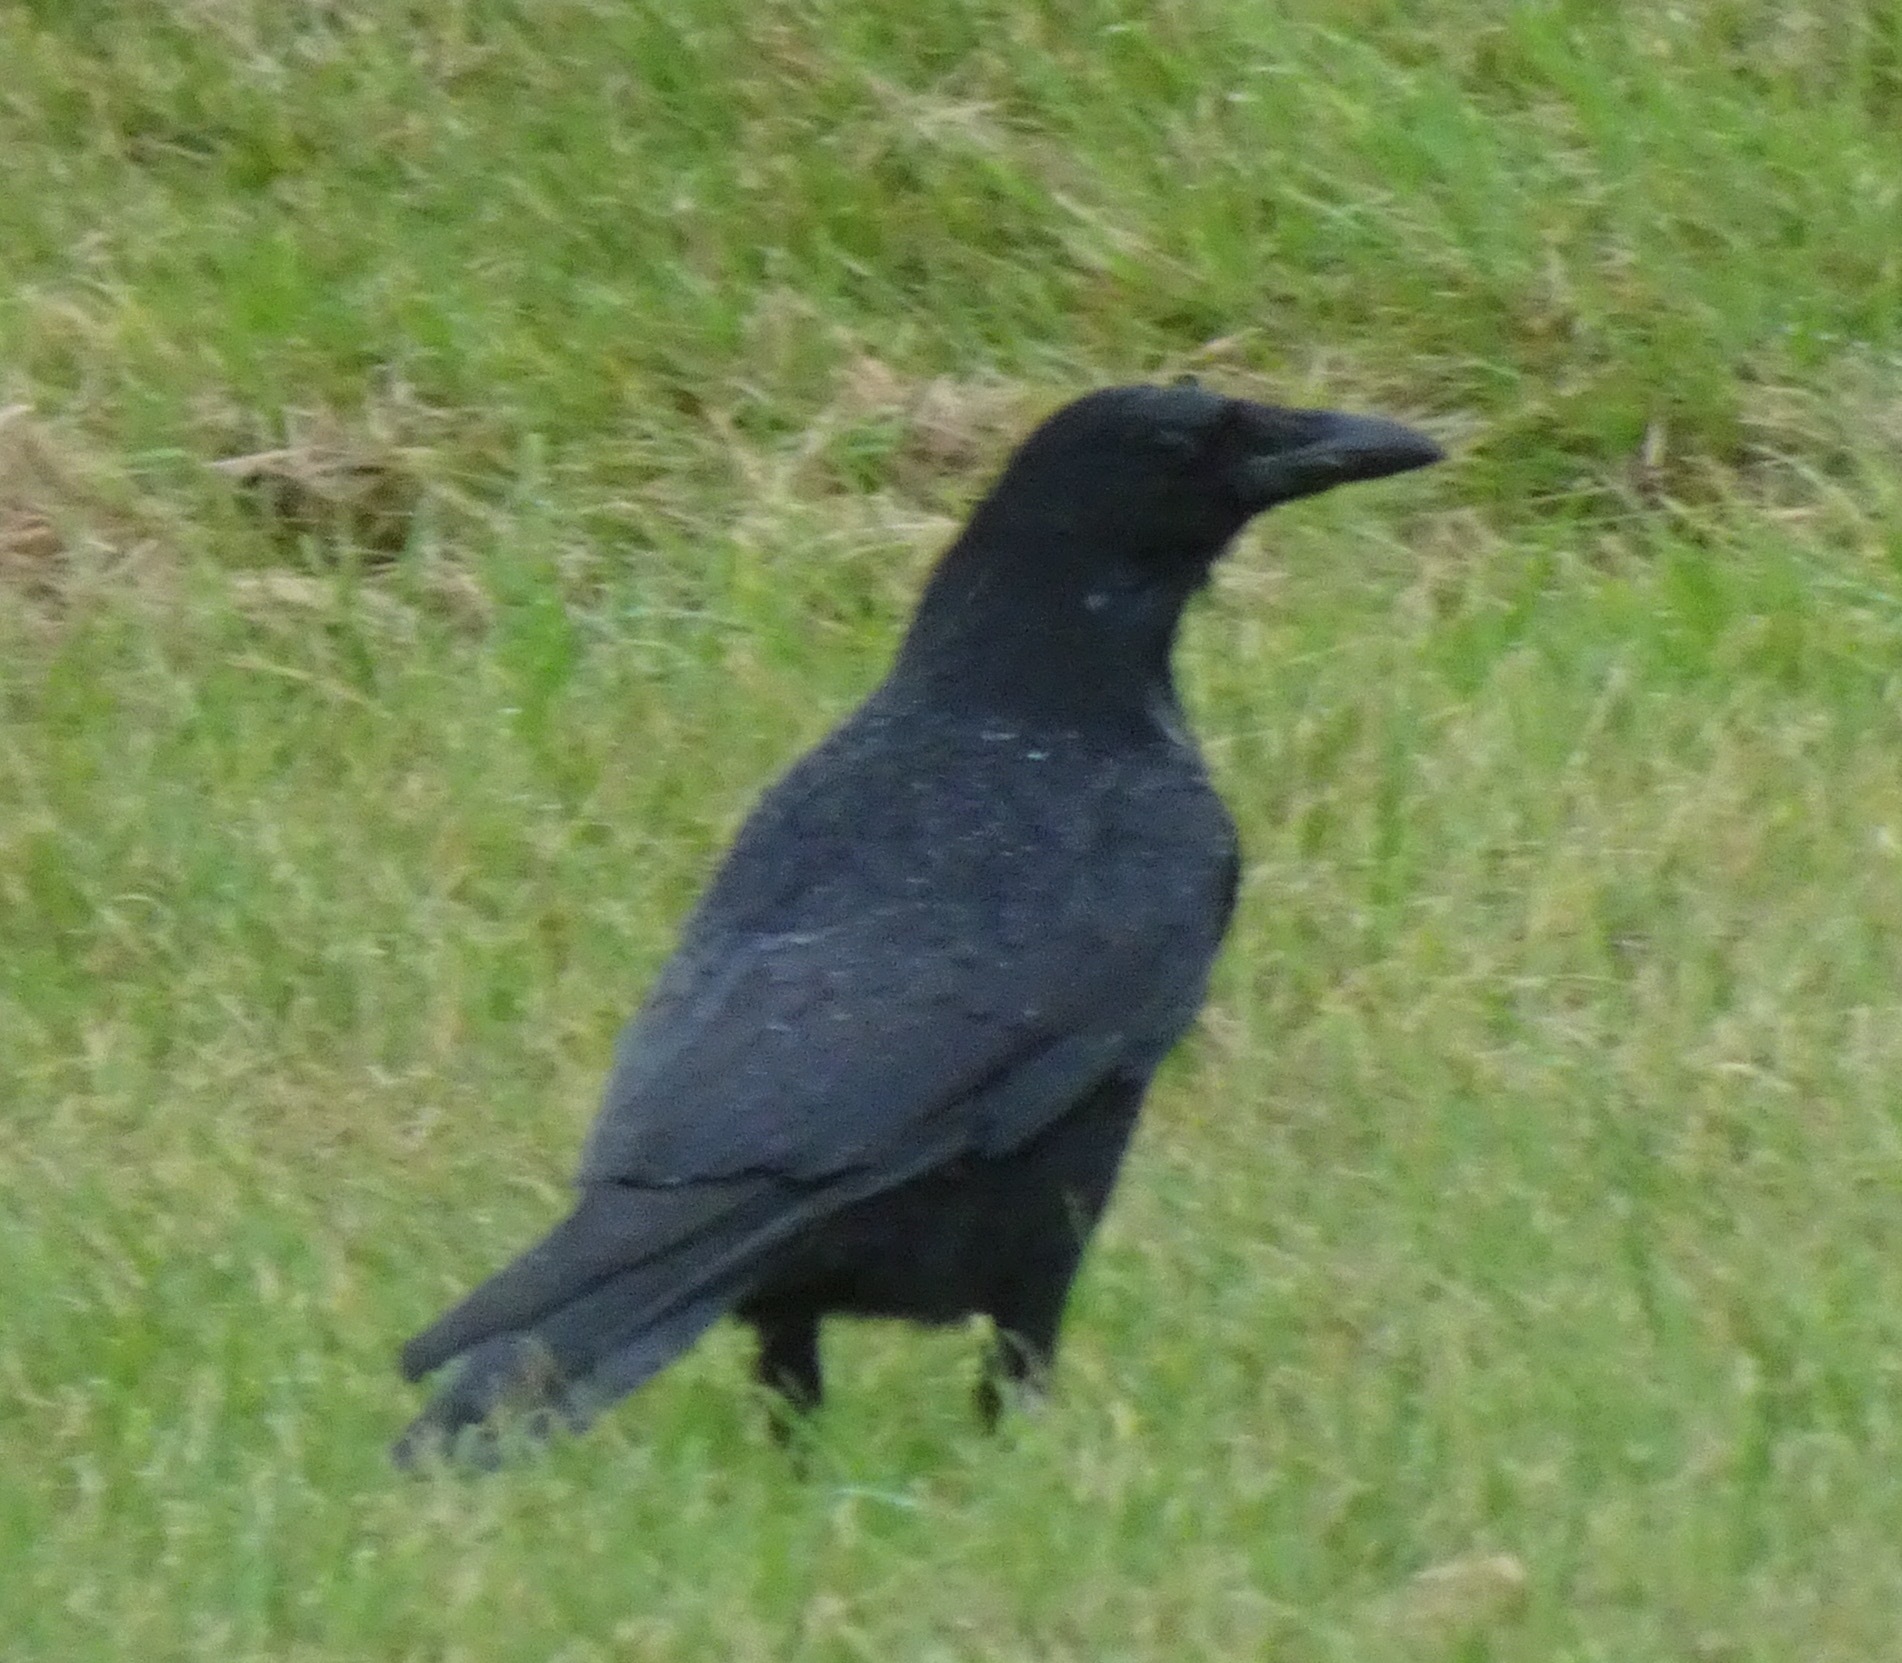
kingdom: Animalia
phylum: Chordata
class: Aves
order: Passeriformes
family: Corvidae
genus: Corvus
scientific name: Corvus corone
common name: Carrion crow
